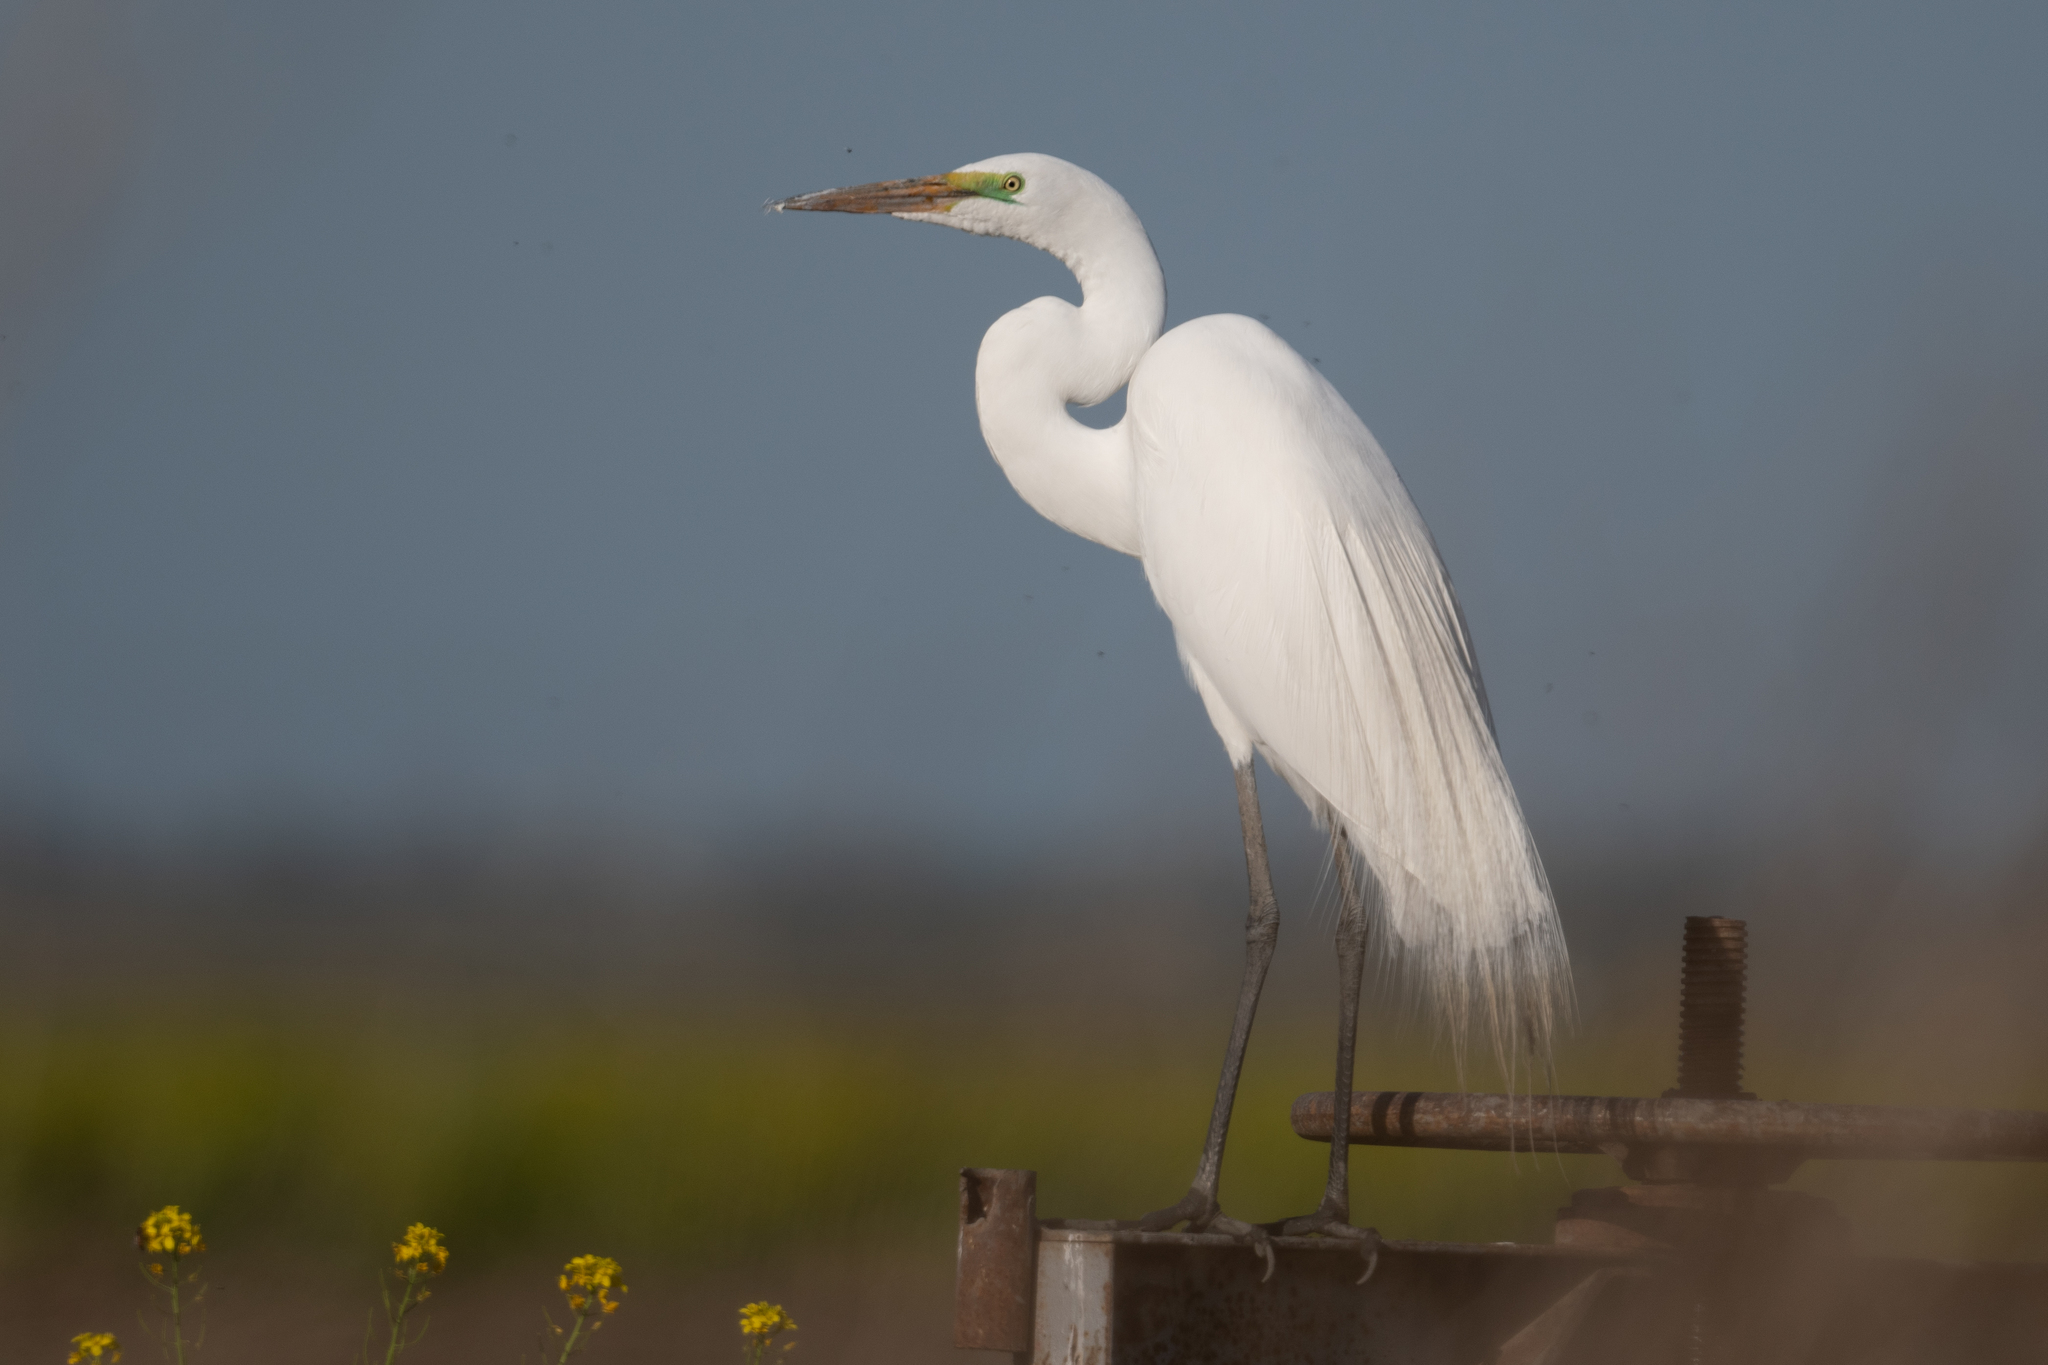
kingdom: Animalia
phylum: Chordata
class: Aves
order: Pelecaniformes
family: Ardeidae
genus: Ardea
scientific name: Ardea alba
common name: Great egret
